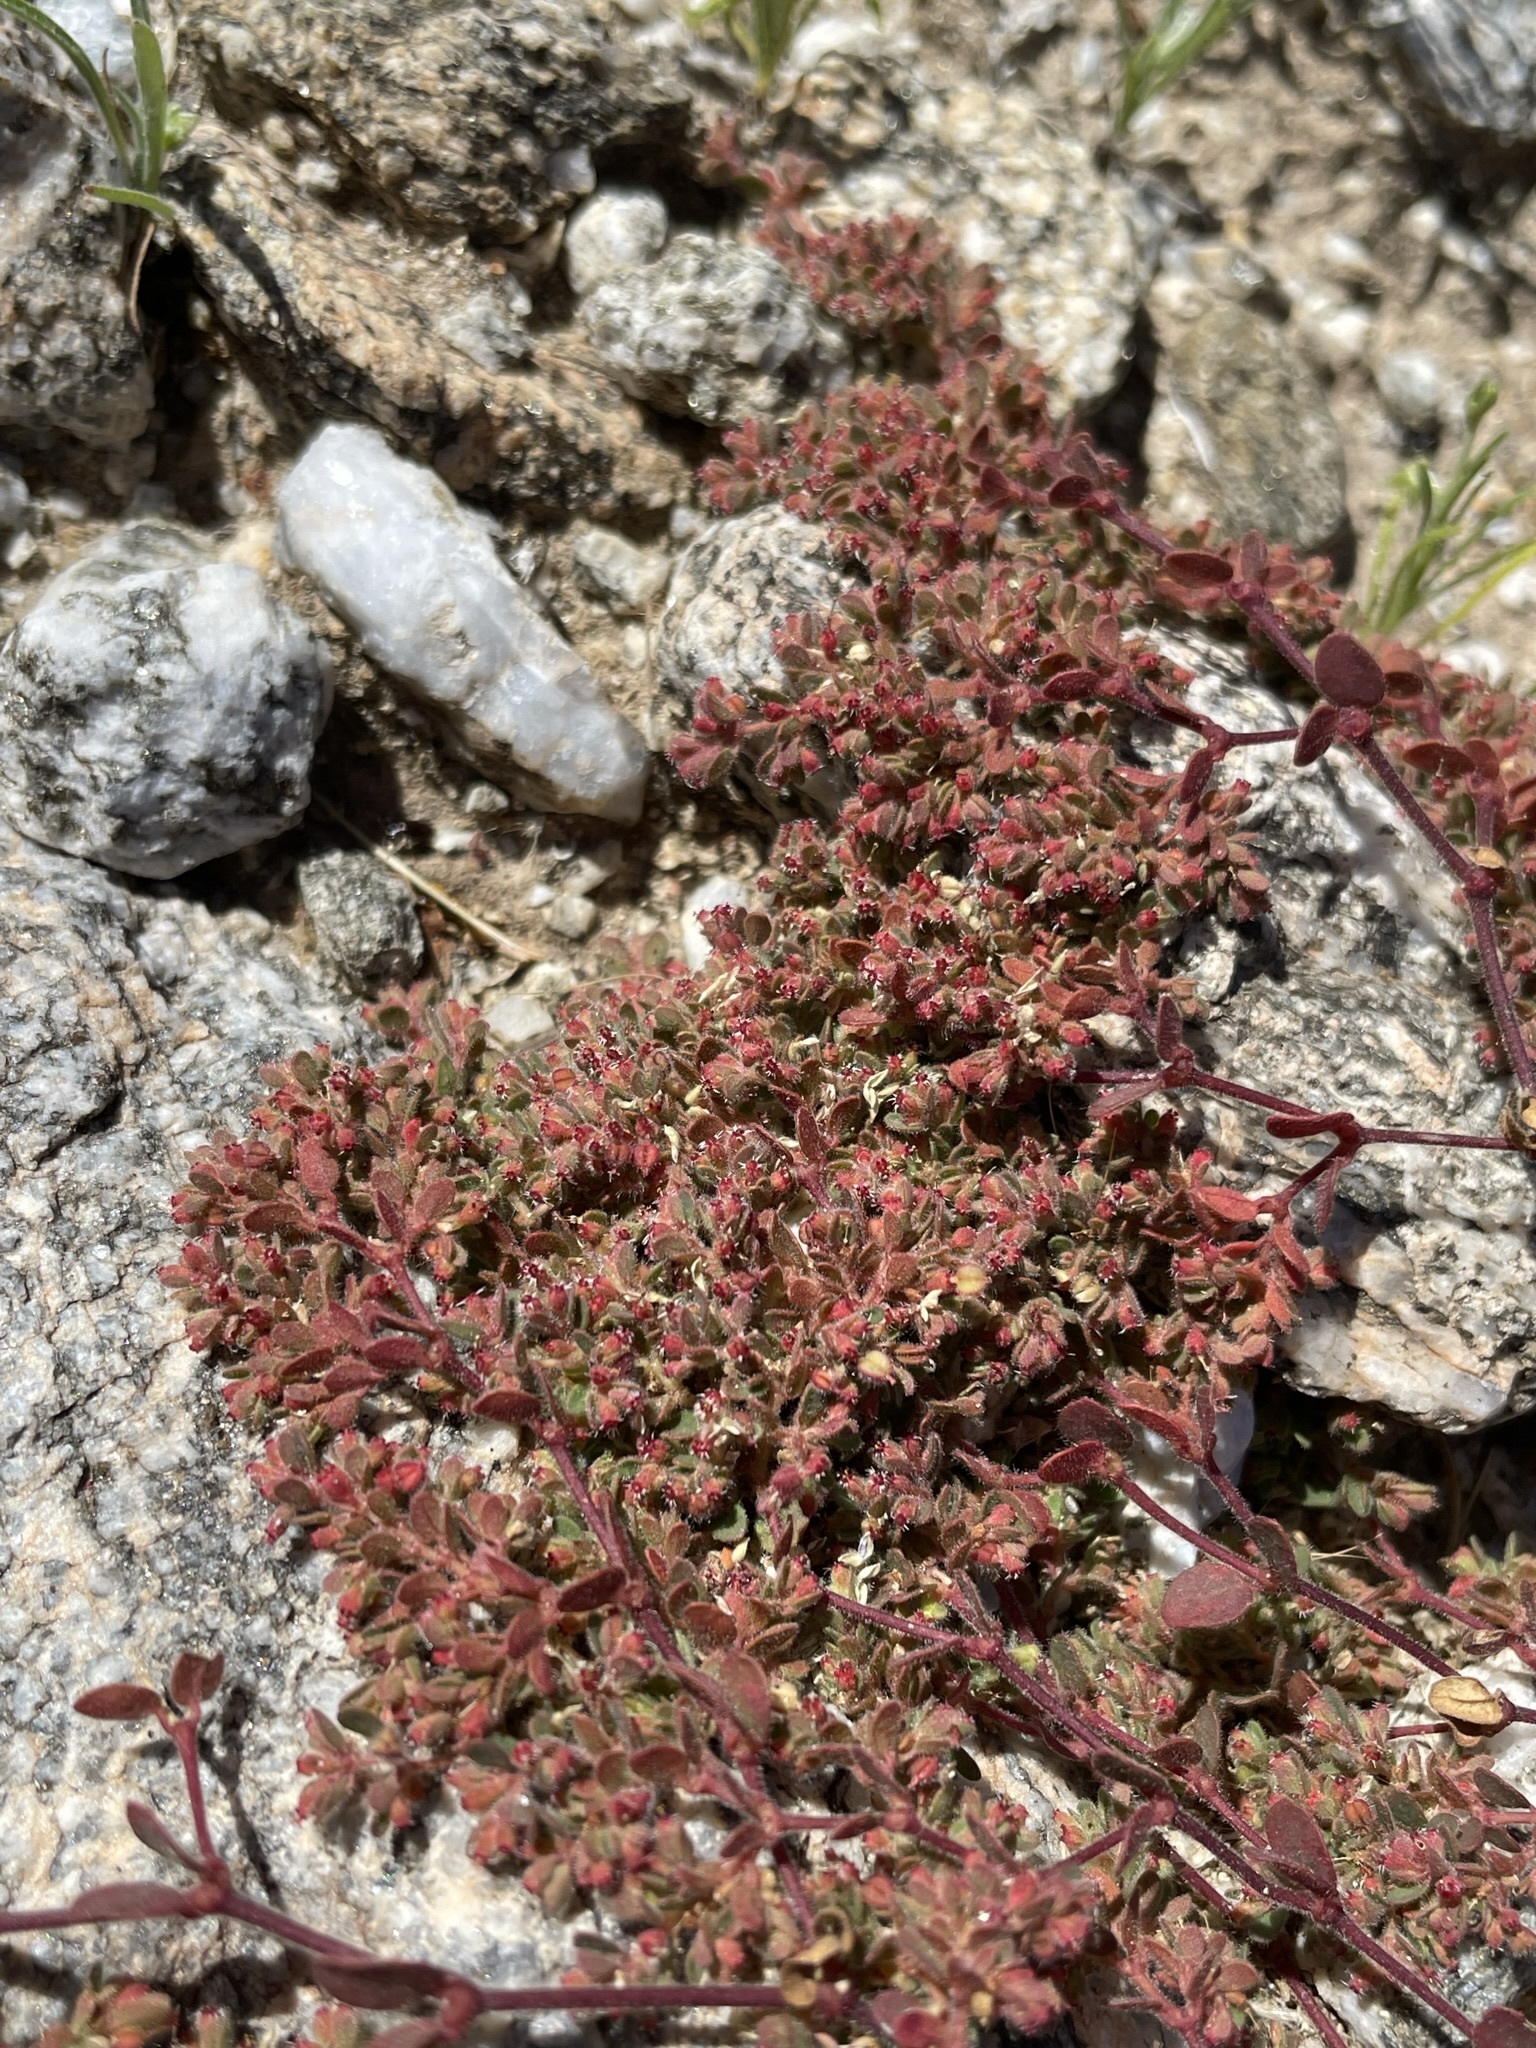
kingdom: Plantae
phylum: Tracheophyta
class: Magnoliopsida
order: Malpighiales
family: Euphorbiaceae
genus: Euphorbia
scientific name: Euphorbia setiloba
